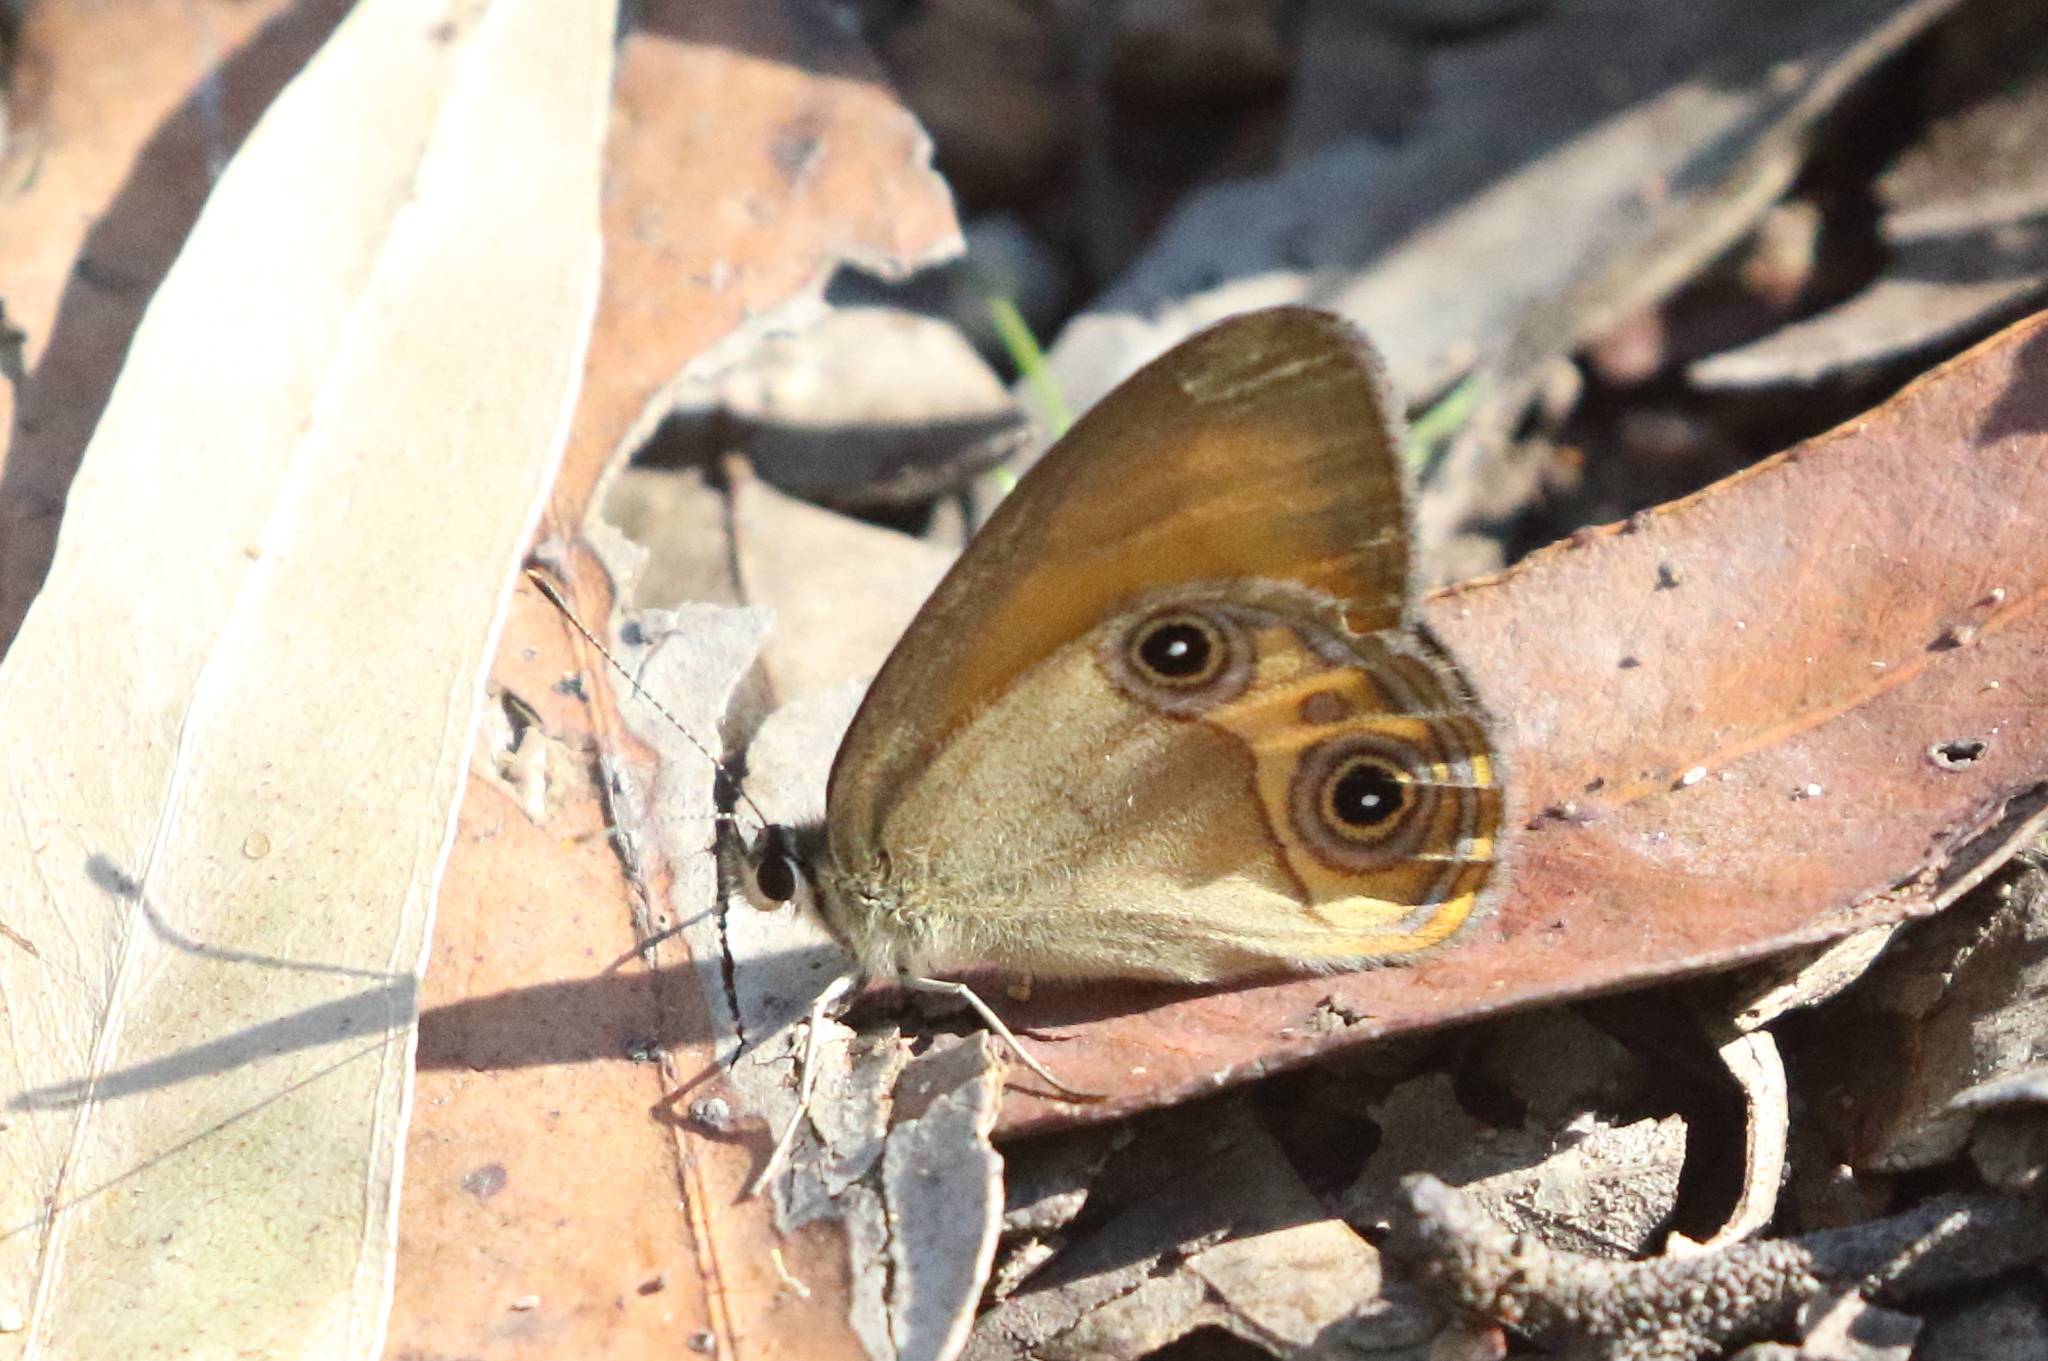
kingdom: Animalia
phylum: Arthropoda
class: Insecta
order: Lepidoptera
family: Nymphalidae
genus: Hypocysta
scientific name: Hypocysta adiante
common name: Orange ringlet
